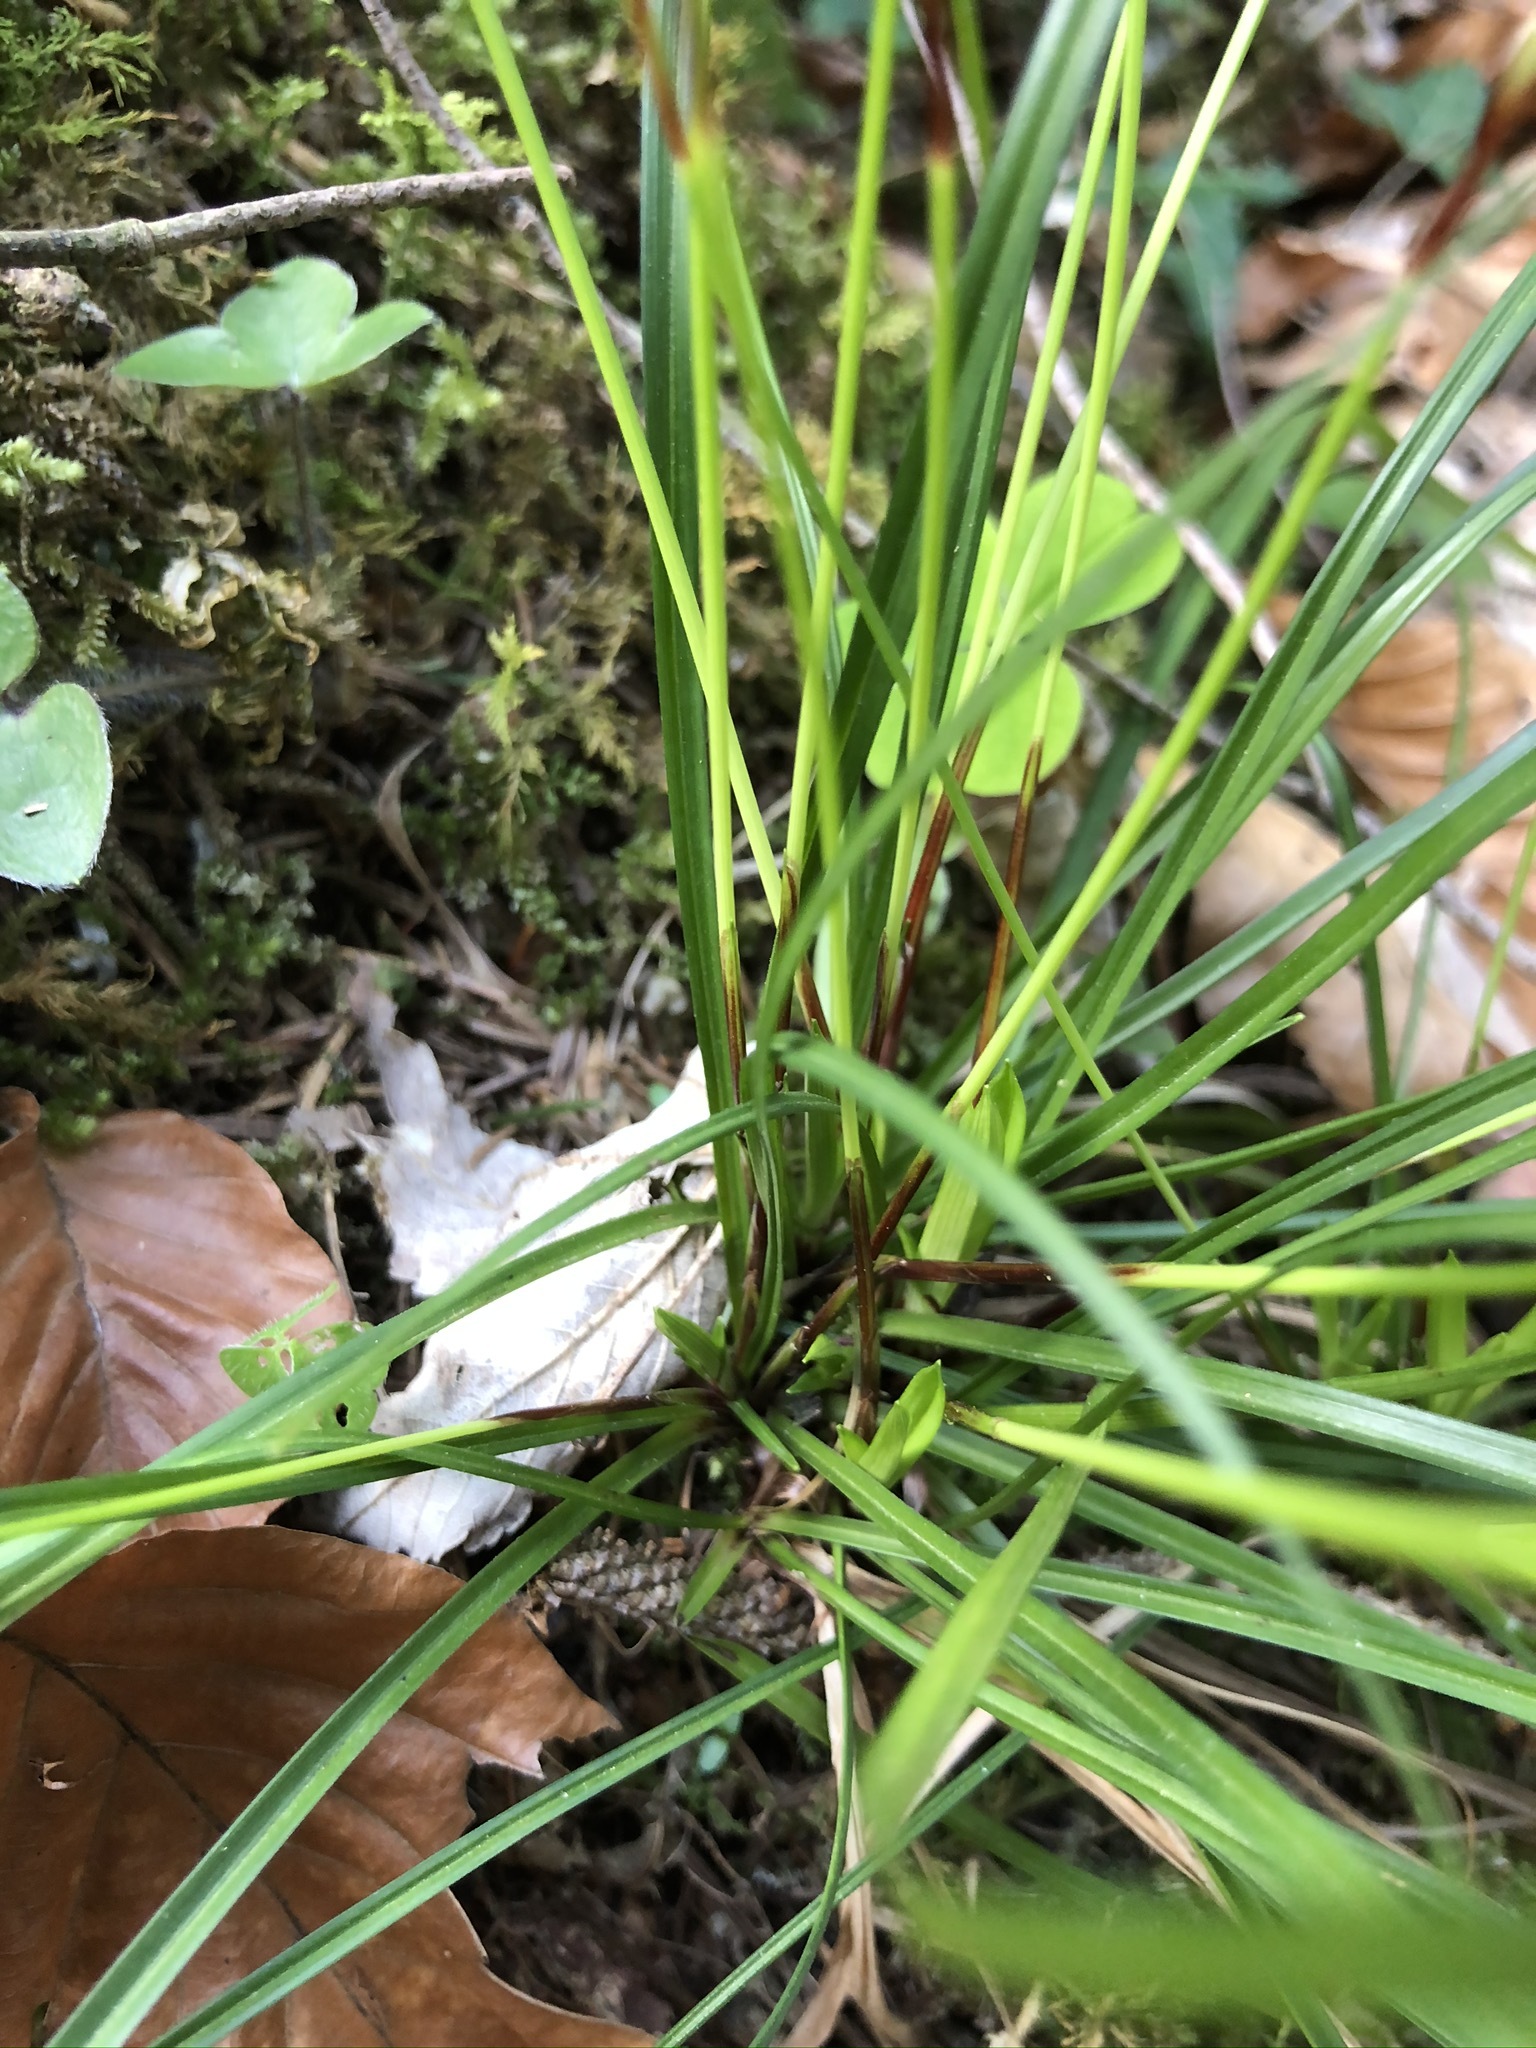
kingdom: Plantae
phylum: Tracheophyta
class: Liliopsida
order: Poales
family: Cyperaceae
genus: Carex
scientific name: Carex digitata
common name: Fingered sedge
